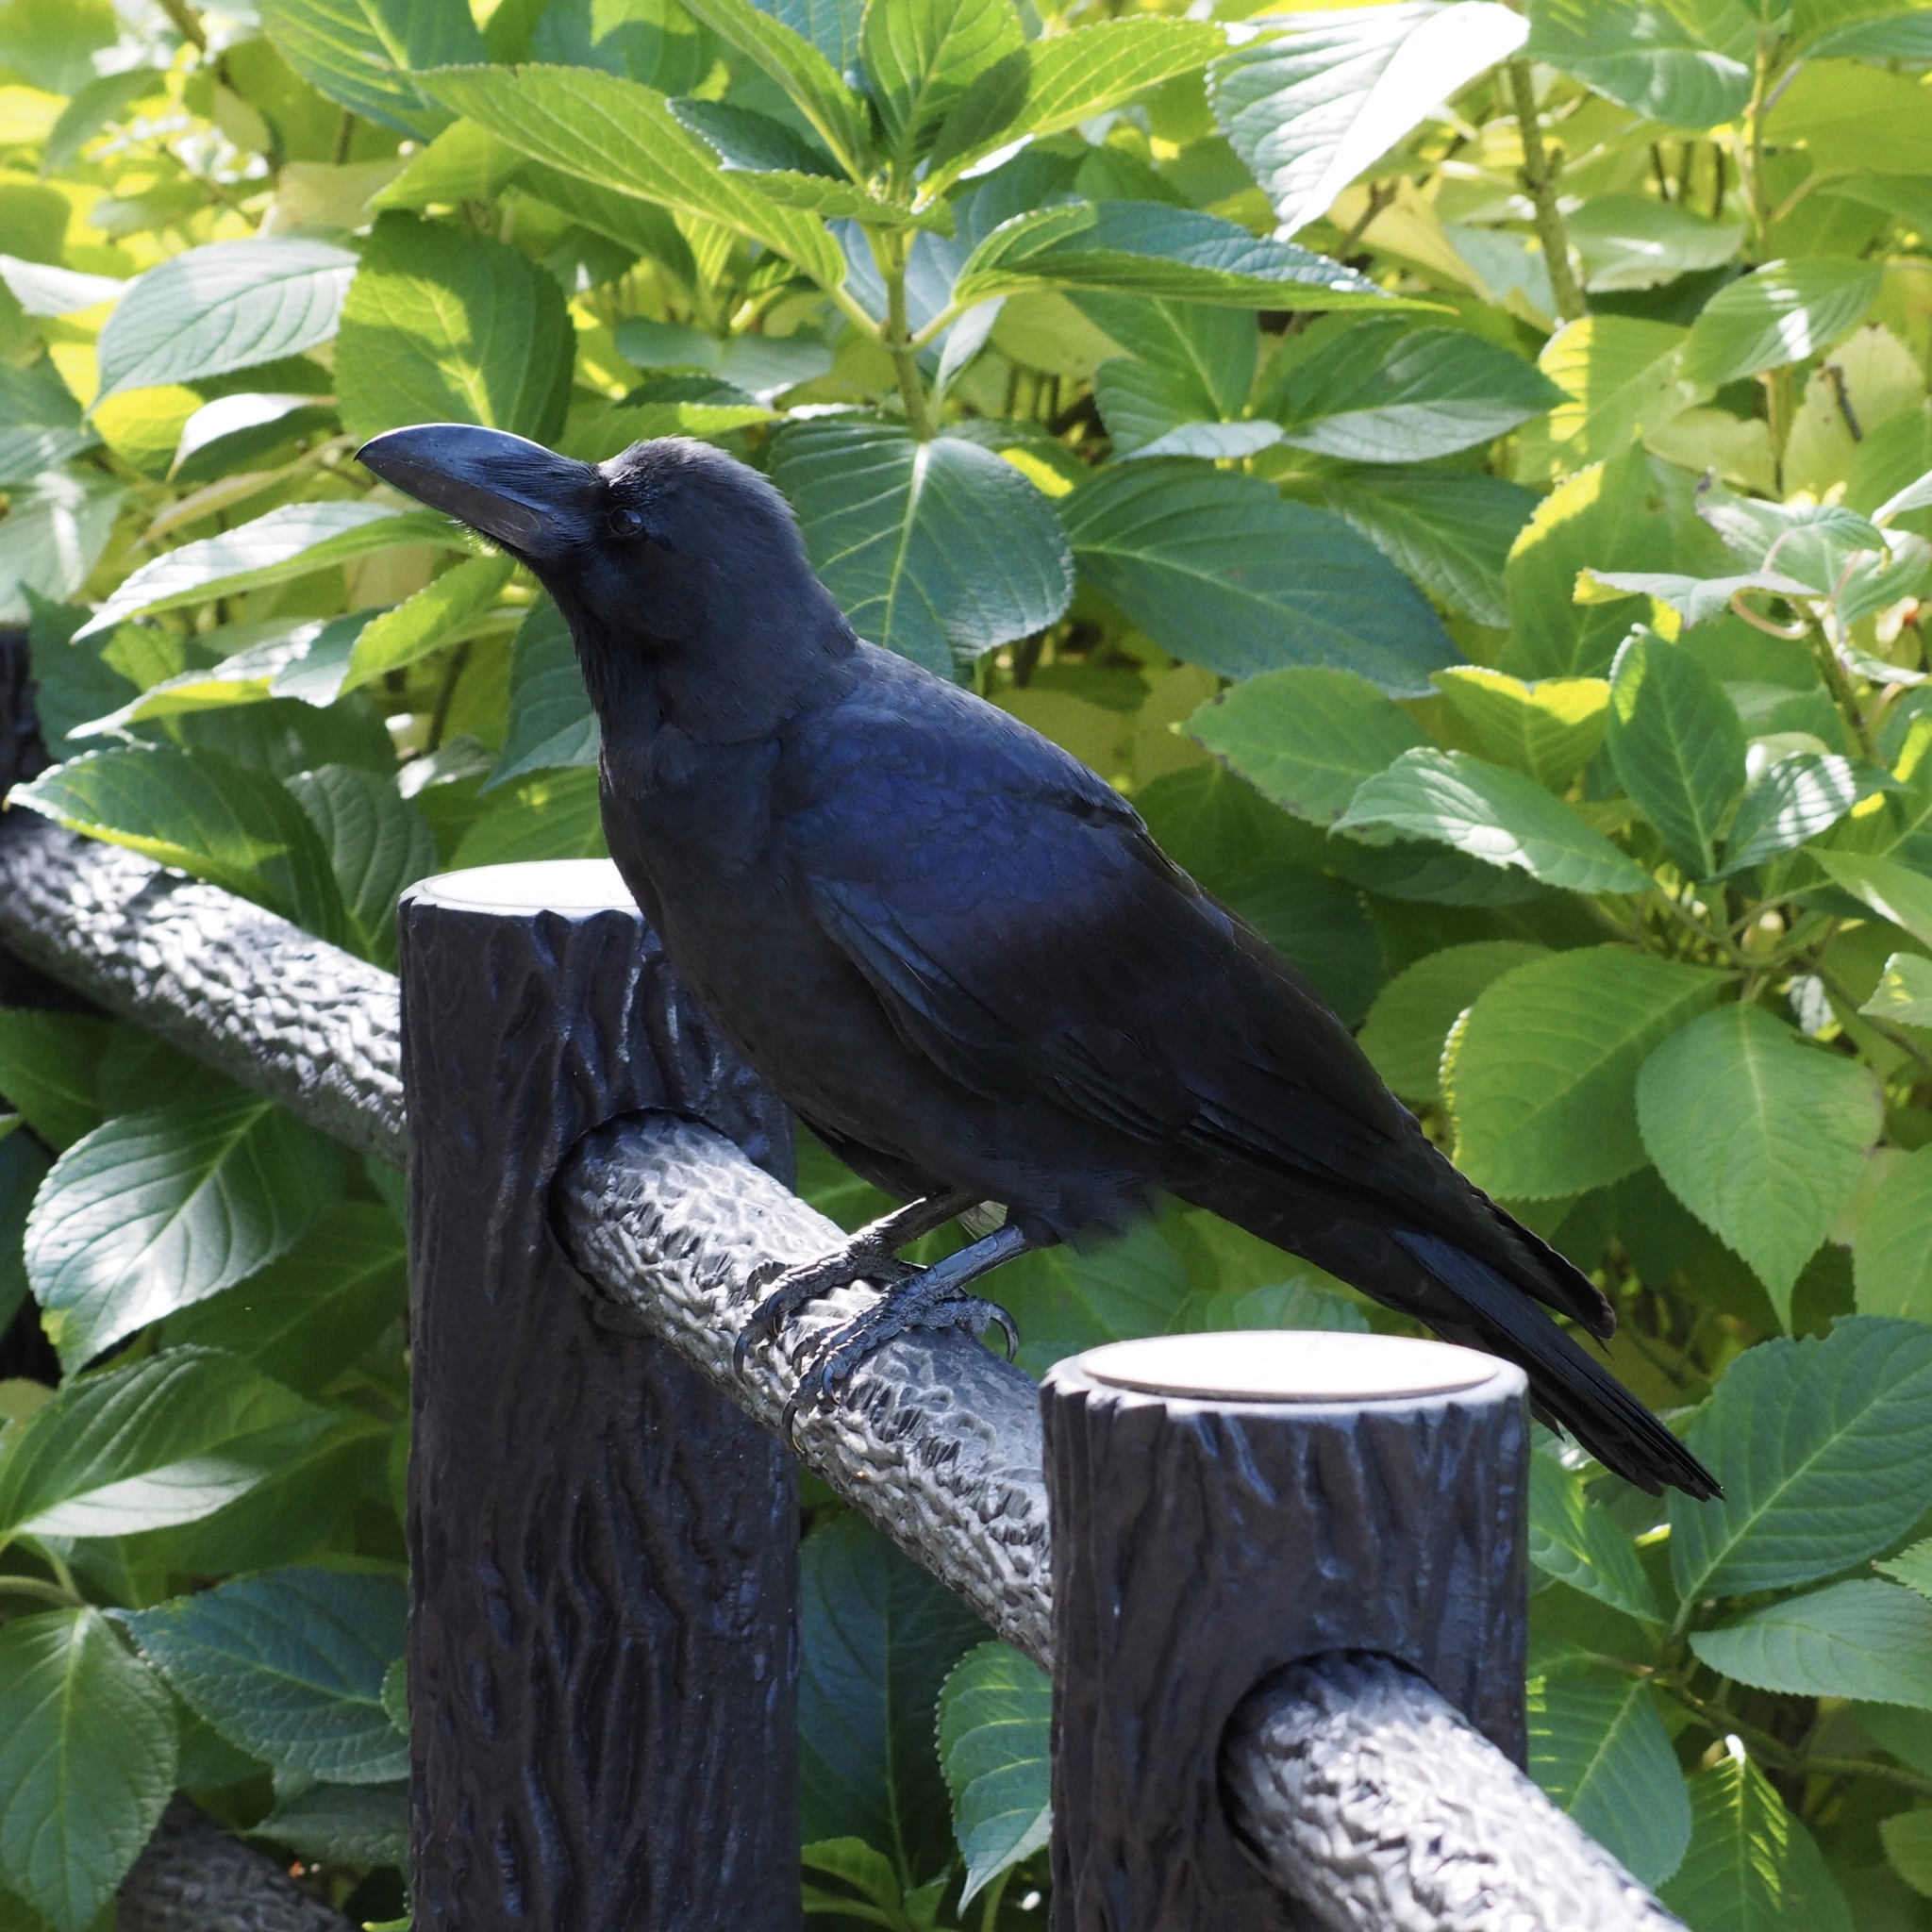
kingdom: Animalia
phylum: Chordata
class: Aves
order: Passeriformes
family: Corvidae
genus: Corvus
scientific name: Corvus macrorhynchos
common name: Large-billed crow
